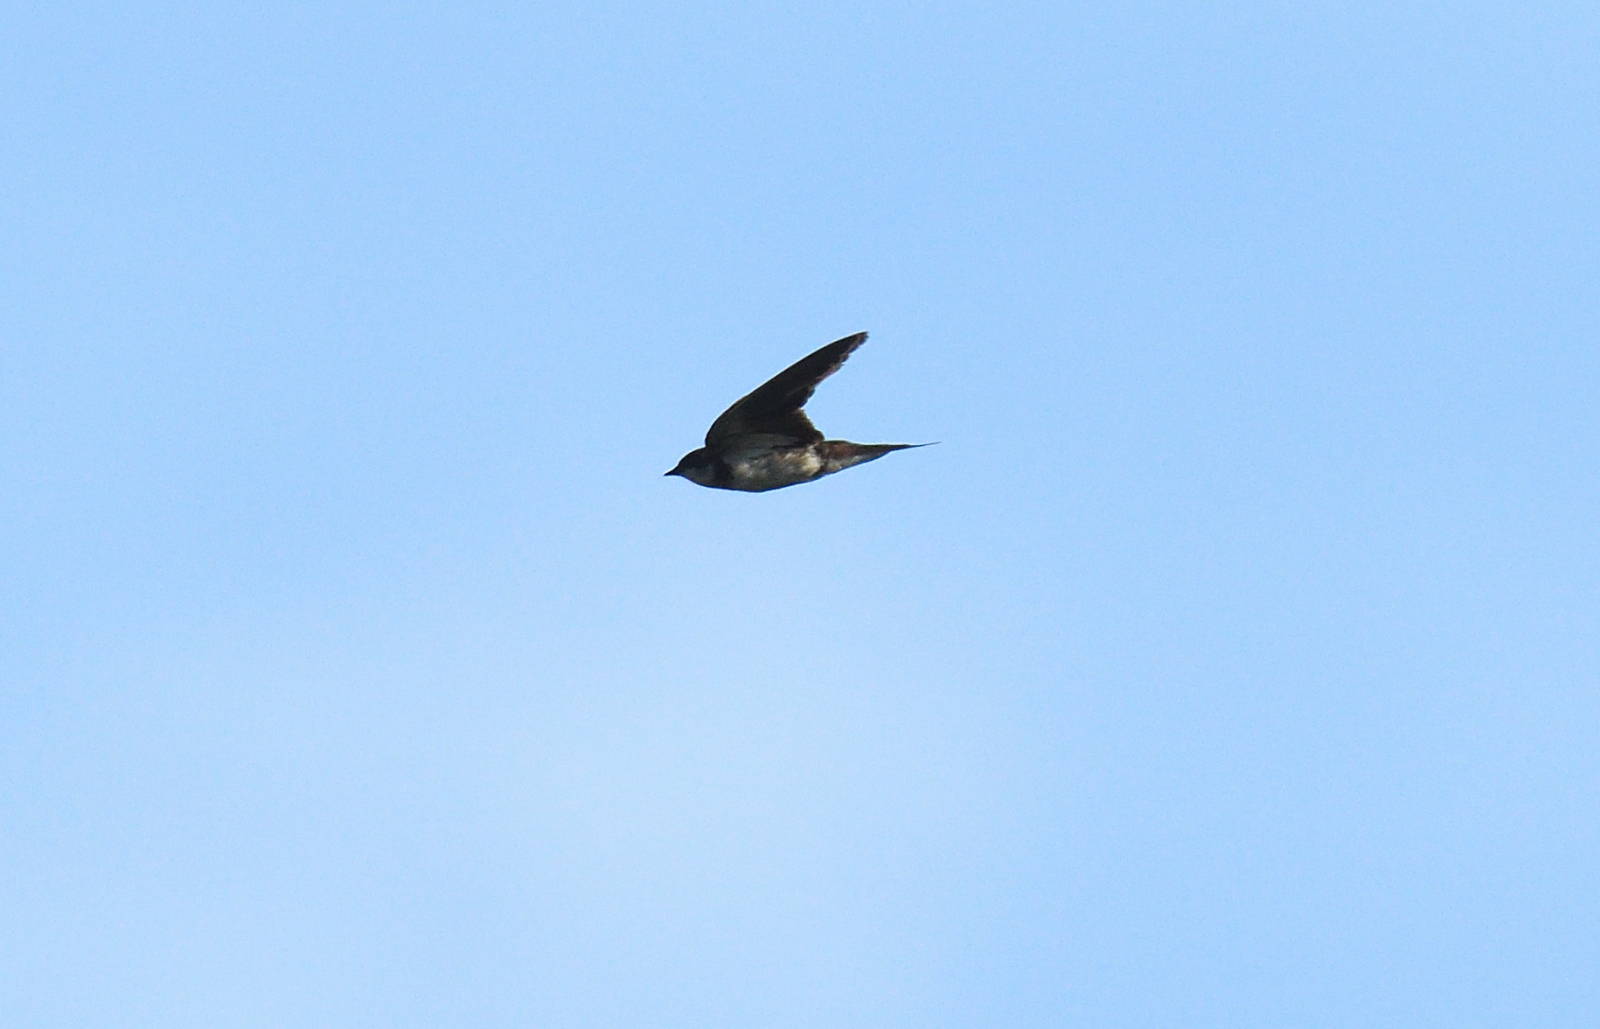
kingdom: Animalia
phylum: Chordata
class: Aves
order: Passeriformes
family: Hirundinidae
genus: Hirundo
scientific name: Hirundo rustica
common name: Barn swallow
